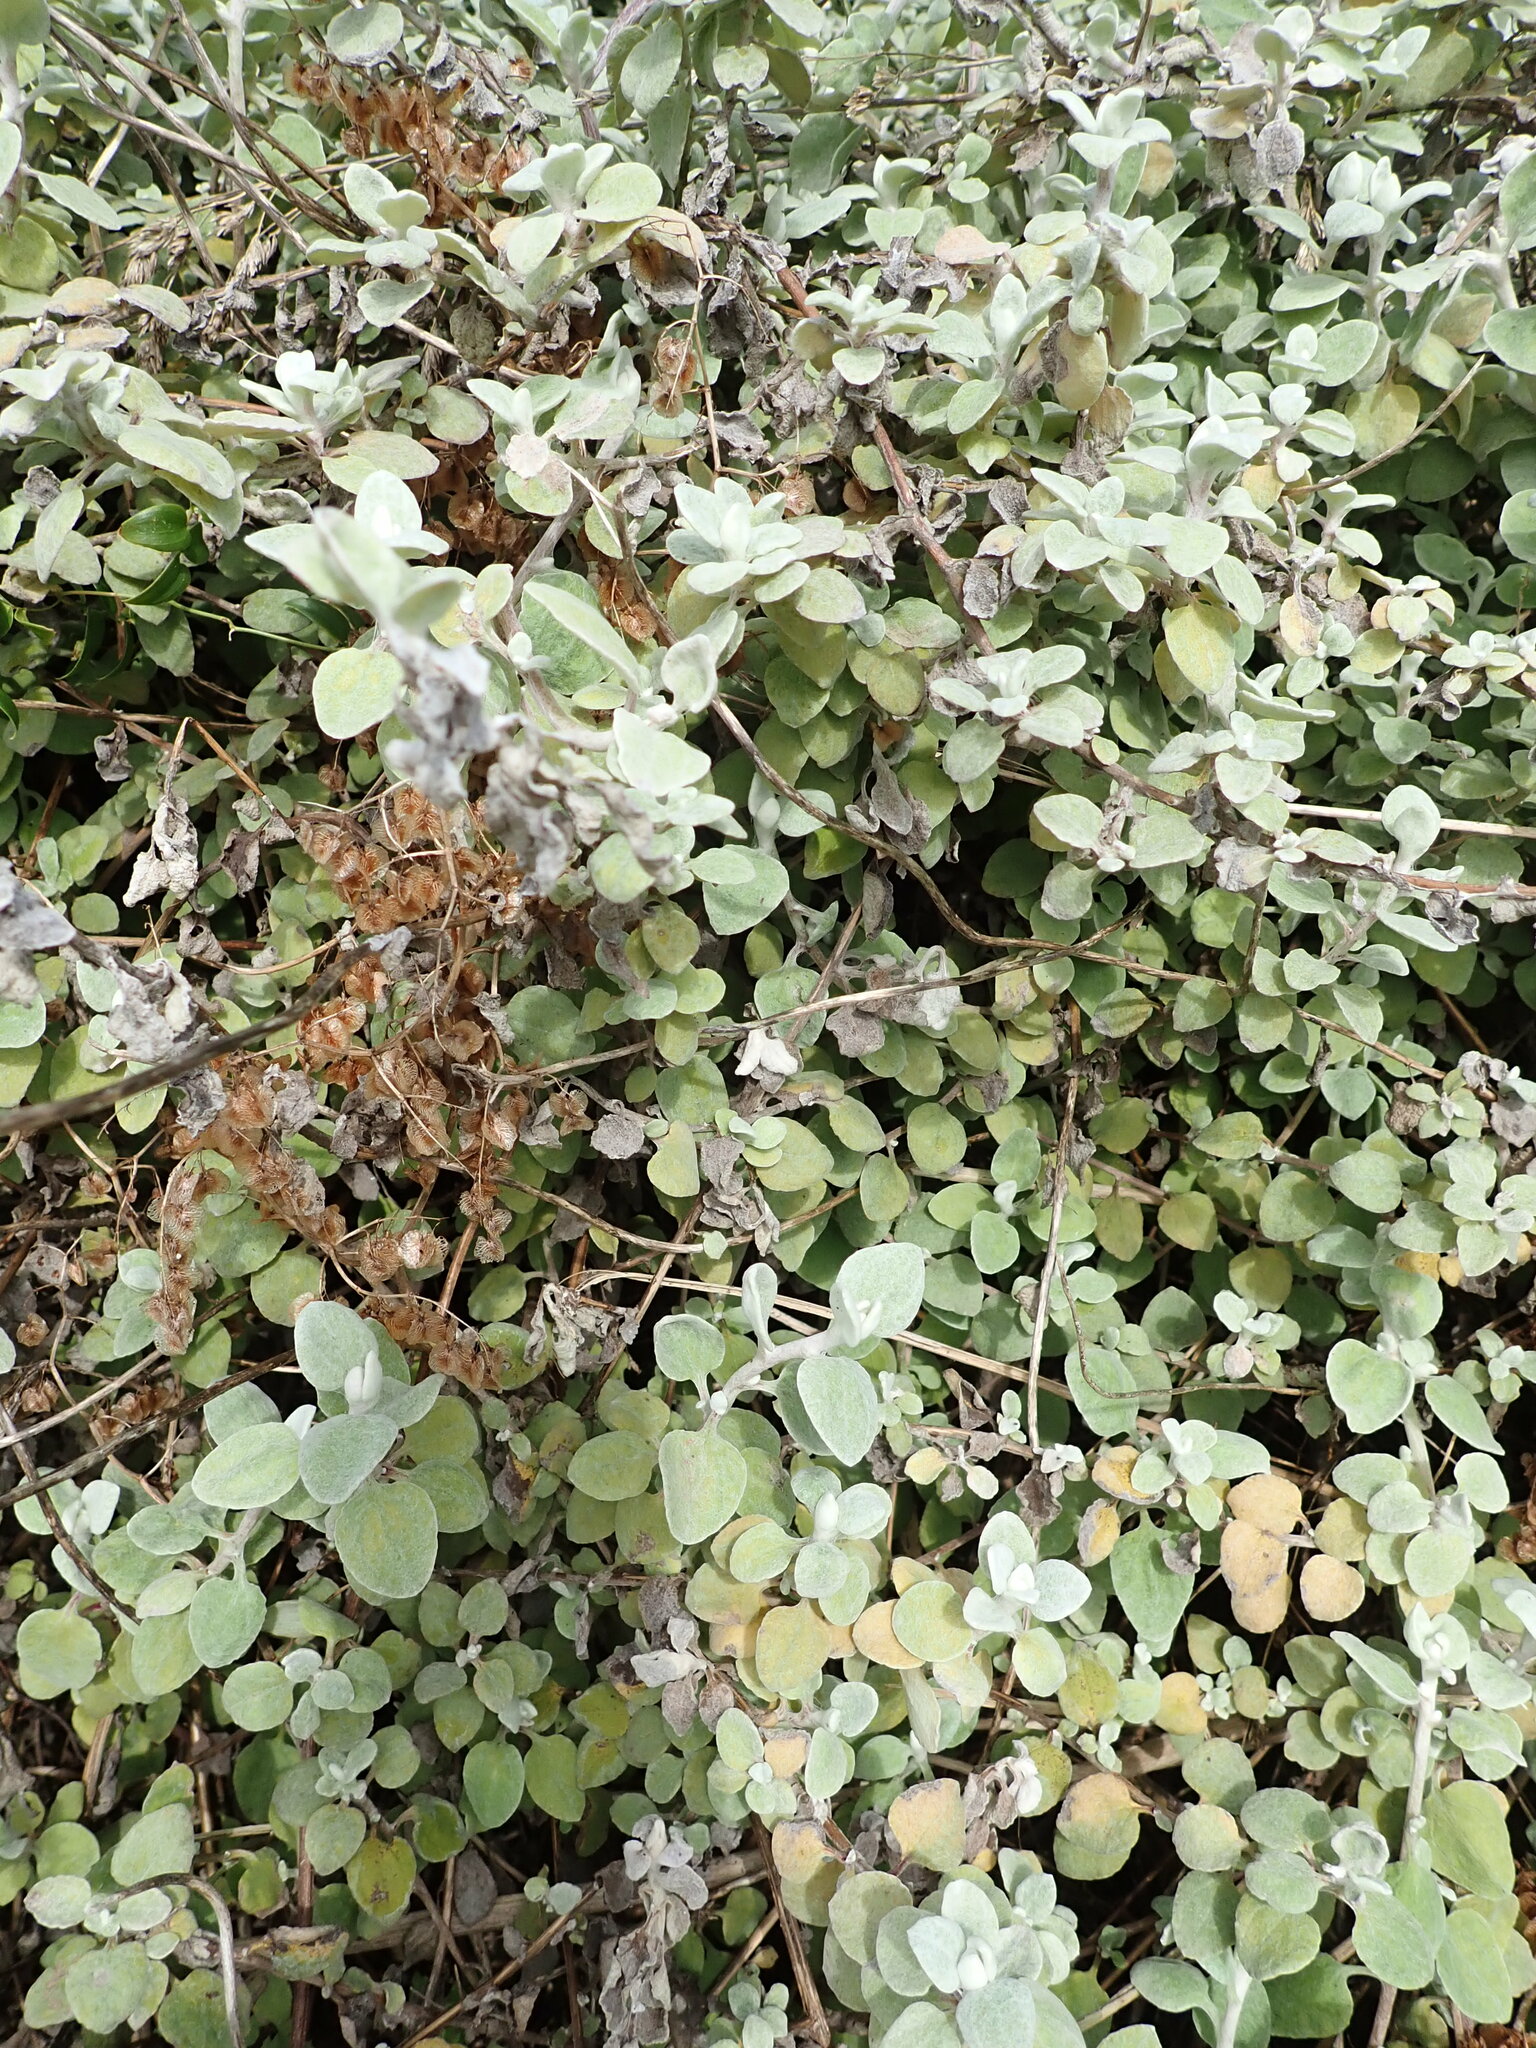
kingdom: Plantae
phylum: Tracheophyta
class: Magnoliopsida
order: Asterales
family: Asteraceae
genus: Helichrysum
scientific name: Helichrysum petiolare
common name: Licorice-plant
